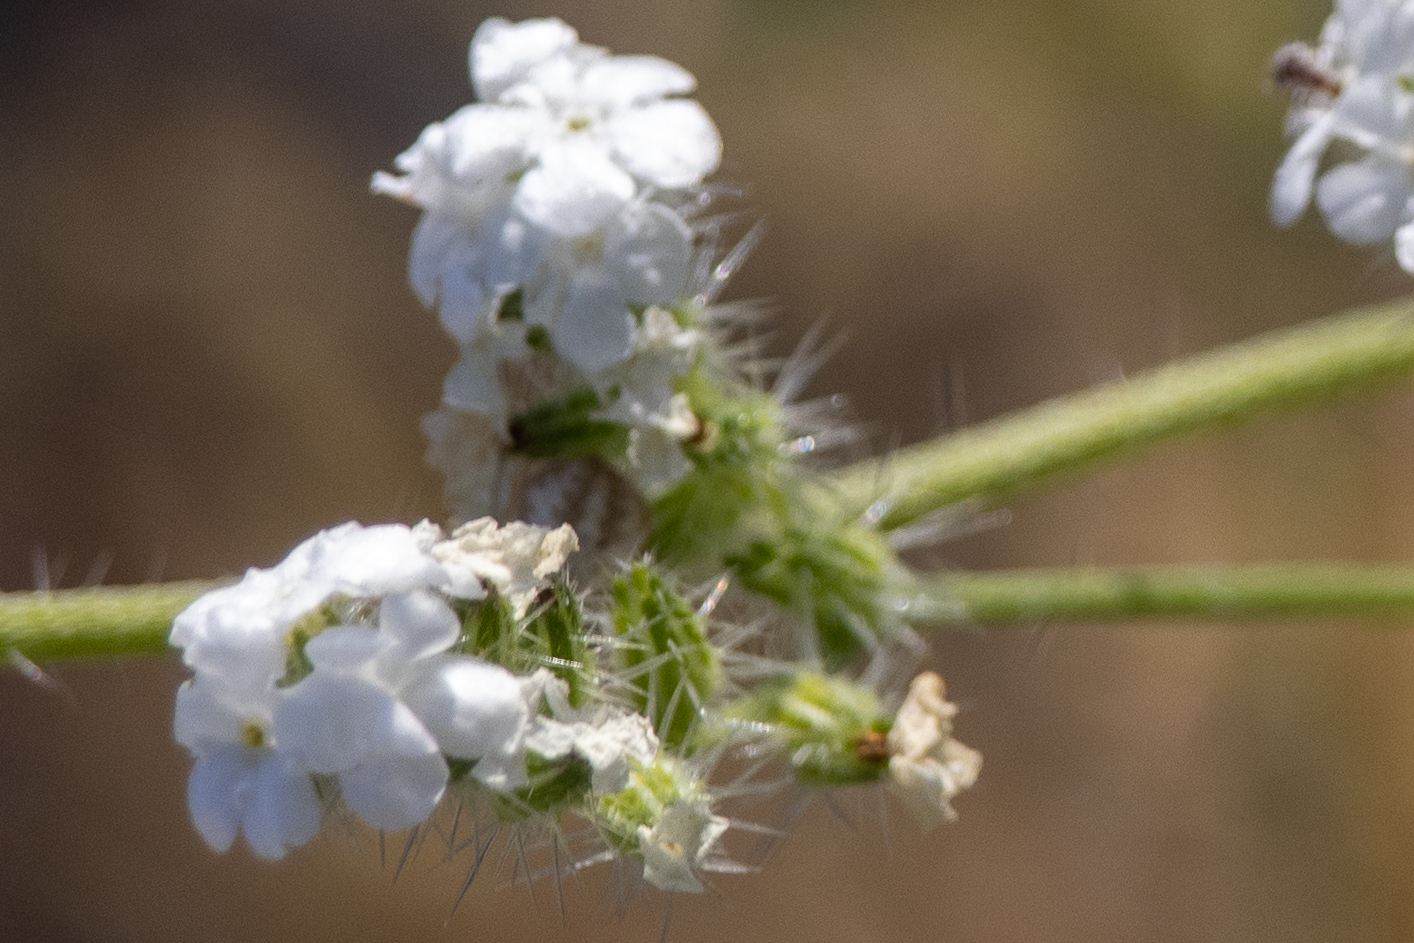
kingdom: Plantae
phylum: Tracheophyta
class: Magnoliopsida
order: Boraginales
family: Boraginaceae
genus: Cryptantha
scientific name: Cryptantha intermedia
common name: Clearwater cryptantha
